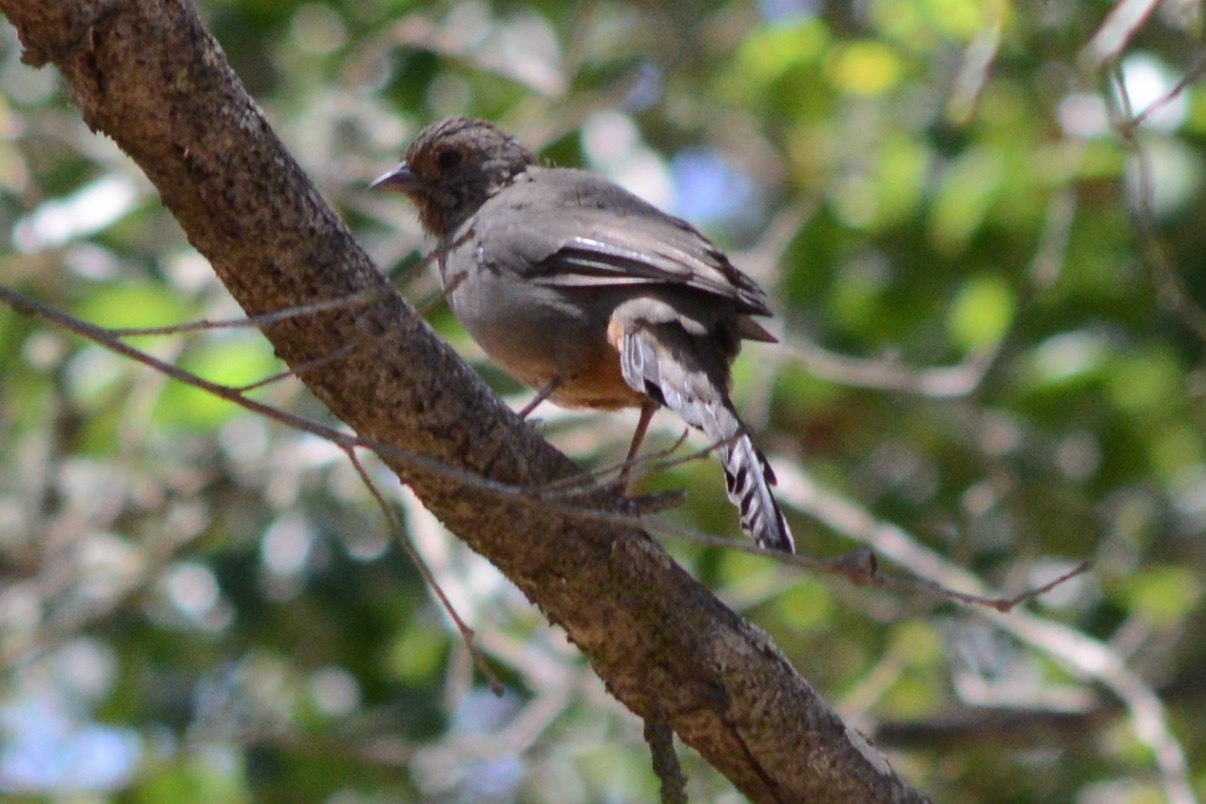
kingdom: Animalia
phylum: Chordata
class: Aves
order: Passeriformes
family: Passerellidae
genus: Melozone
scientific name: Melozone crissalis
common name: California towhee
